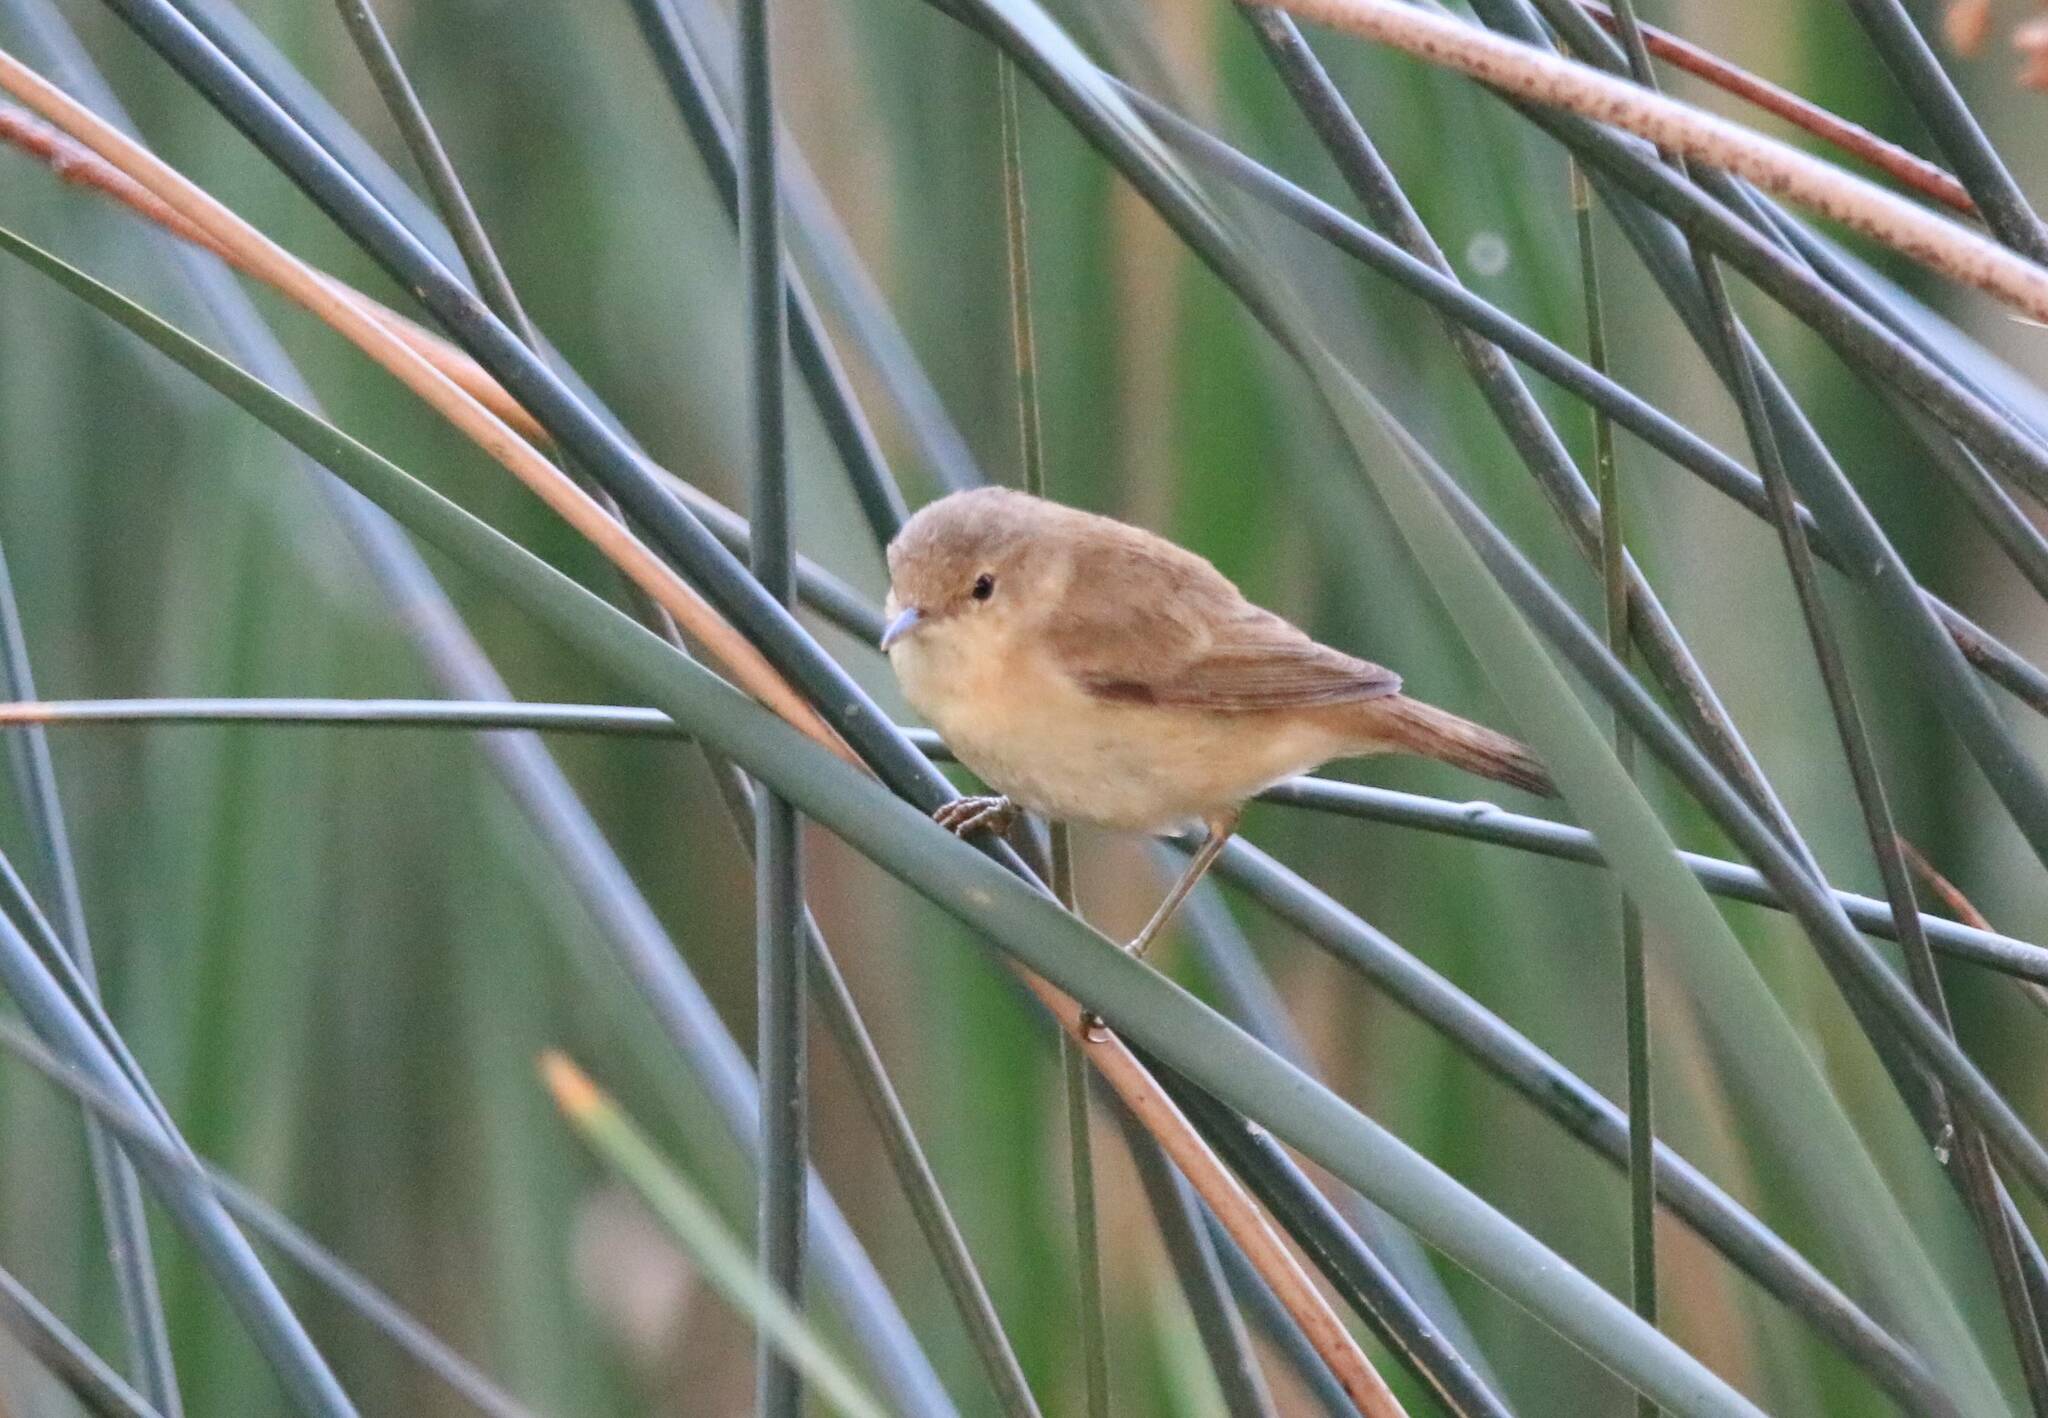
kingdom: Animalia
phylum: Chordata
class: Aves
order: Passeriformes
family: Acrocephalidae
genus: Acrocephalus
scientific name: Acrocephalus scirpaceus
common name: Eurasian reed warbler
